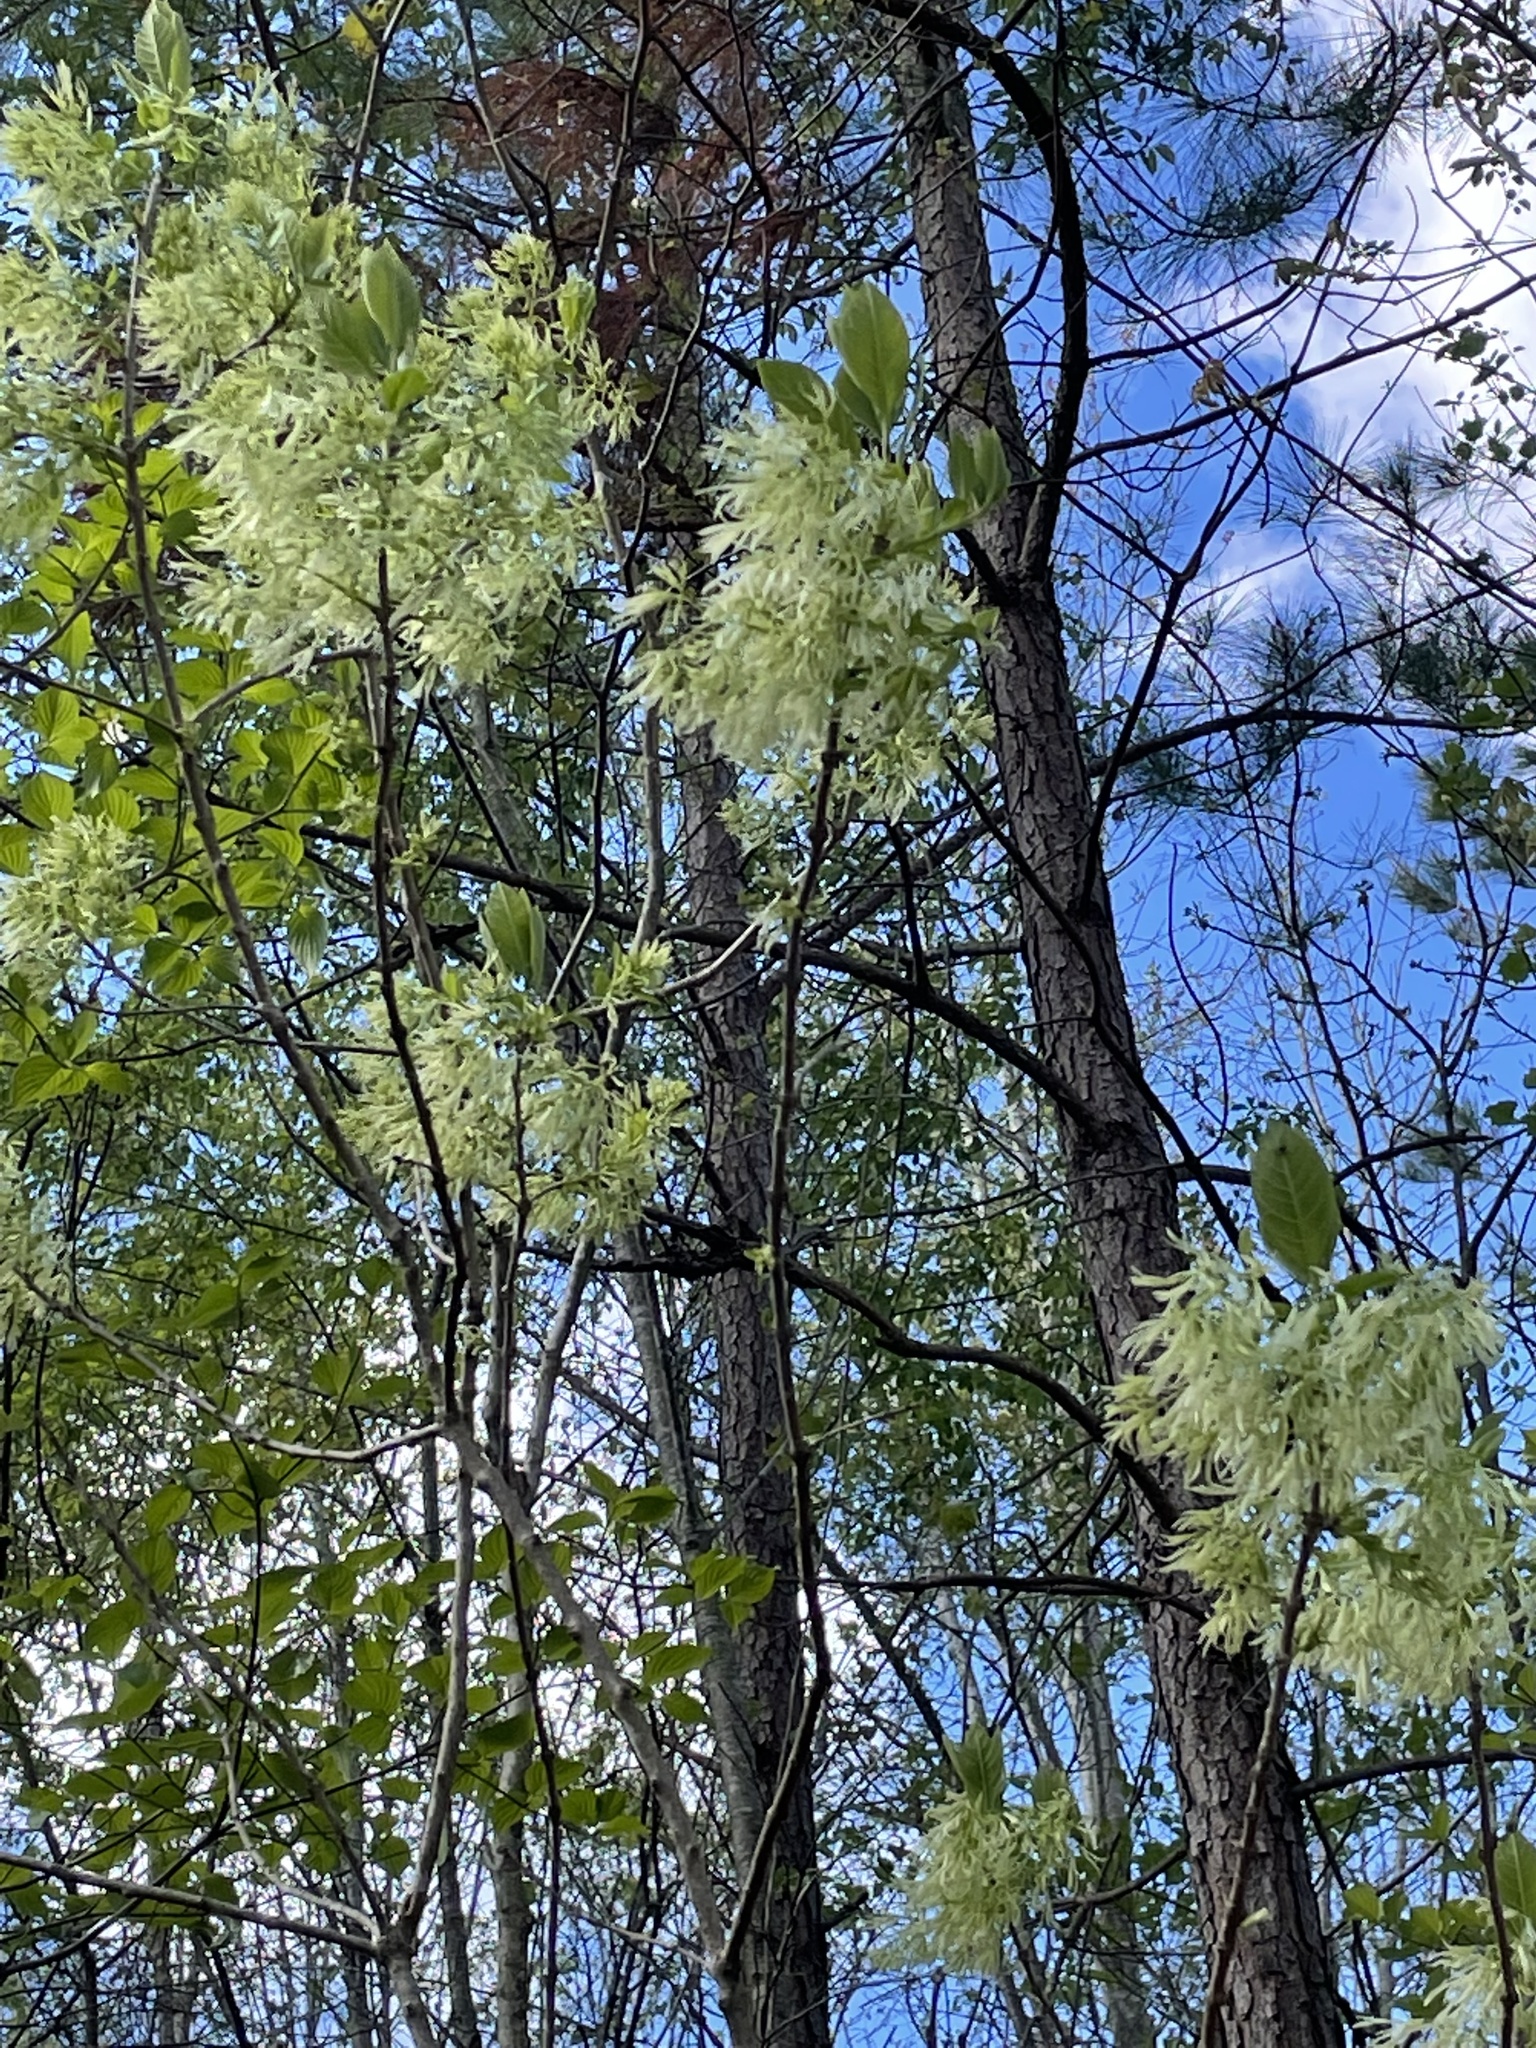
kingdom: Plantae
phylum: Tracheophyta
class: Magnoliopsida
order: Lamiales
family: Oleaceae
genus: Chionanthus
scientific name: Chionanthus virginicus
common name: American fringetree
